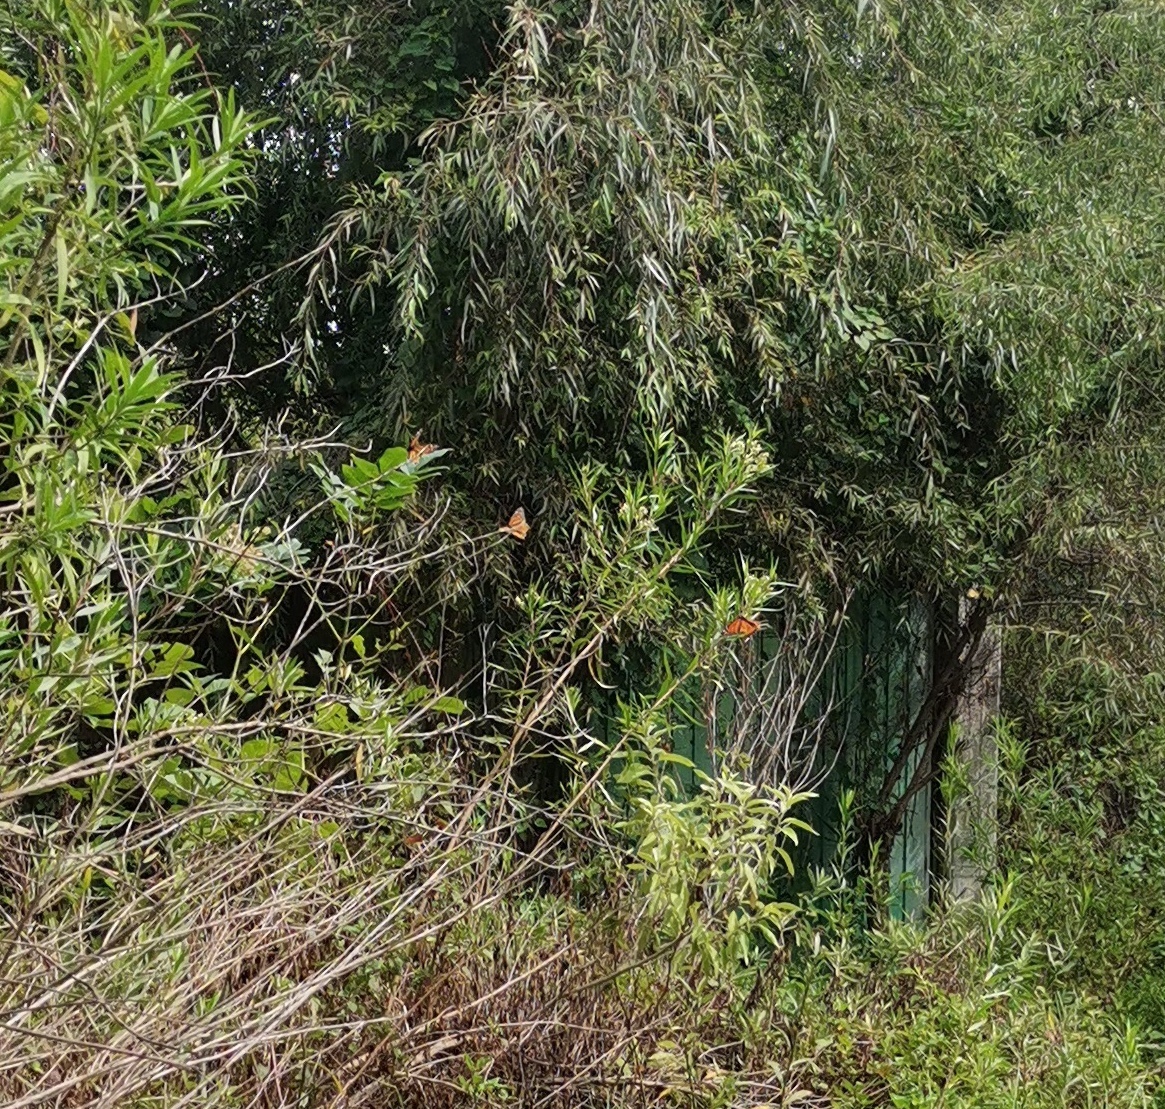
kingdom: Animalia
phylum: Arthropoda
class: Insecta
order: Lepidoptera
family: Nymphalidae
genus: Danaus
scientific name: Danaus plexippus
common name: Monarch
